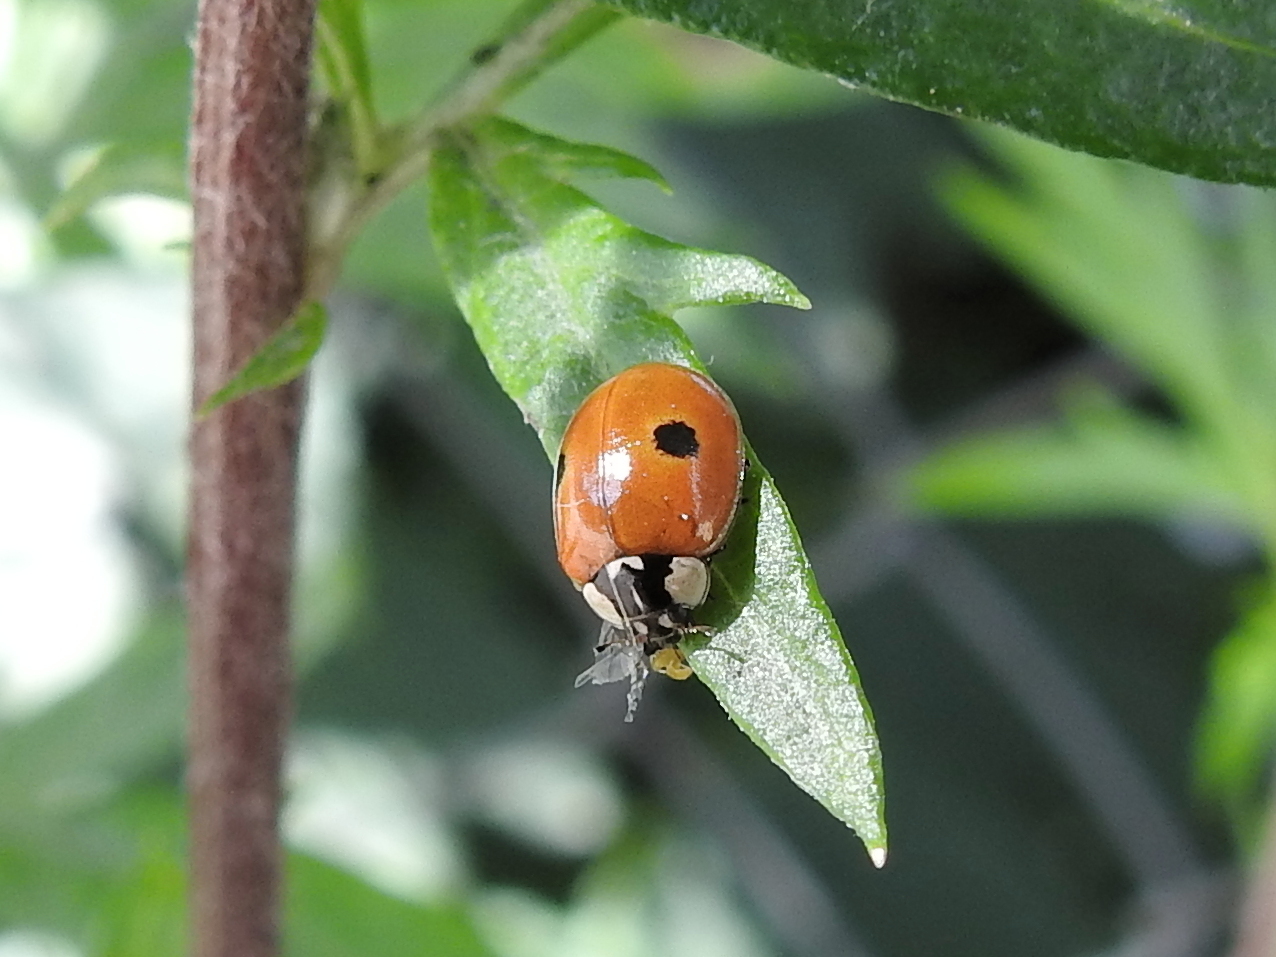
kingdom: Animalia
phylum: Arthropoda
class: Insecta
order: Coleoptera
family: Coccinellidae
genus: Adalia
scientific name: Adalia bipunctata
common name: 2-spot ladybird
